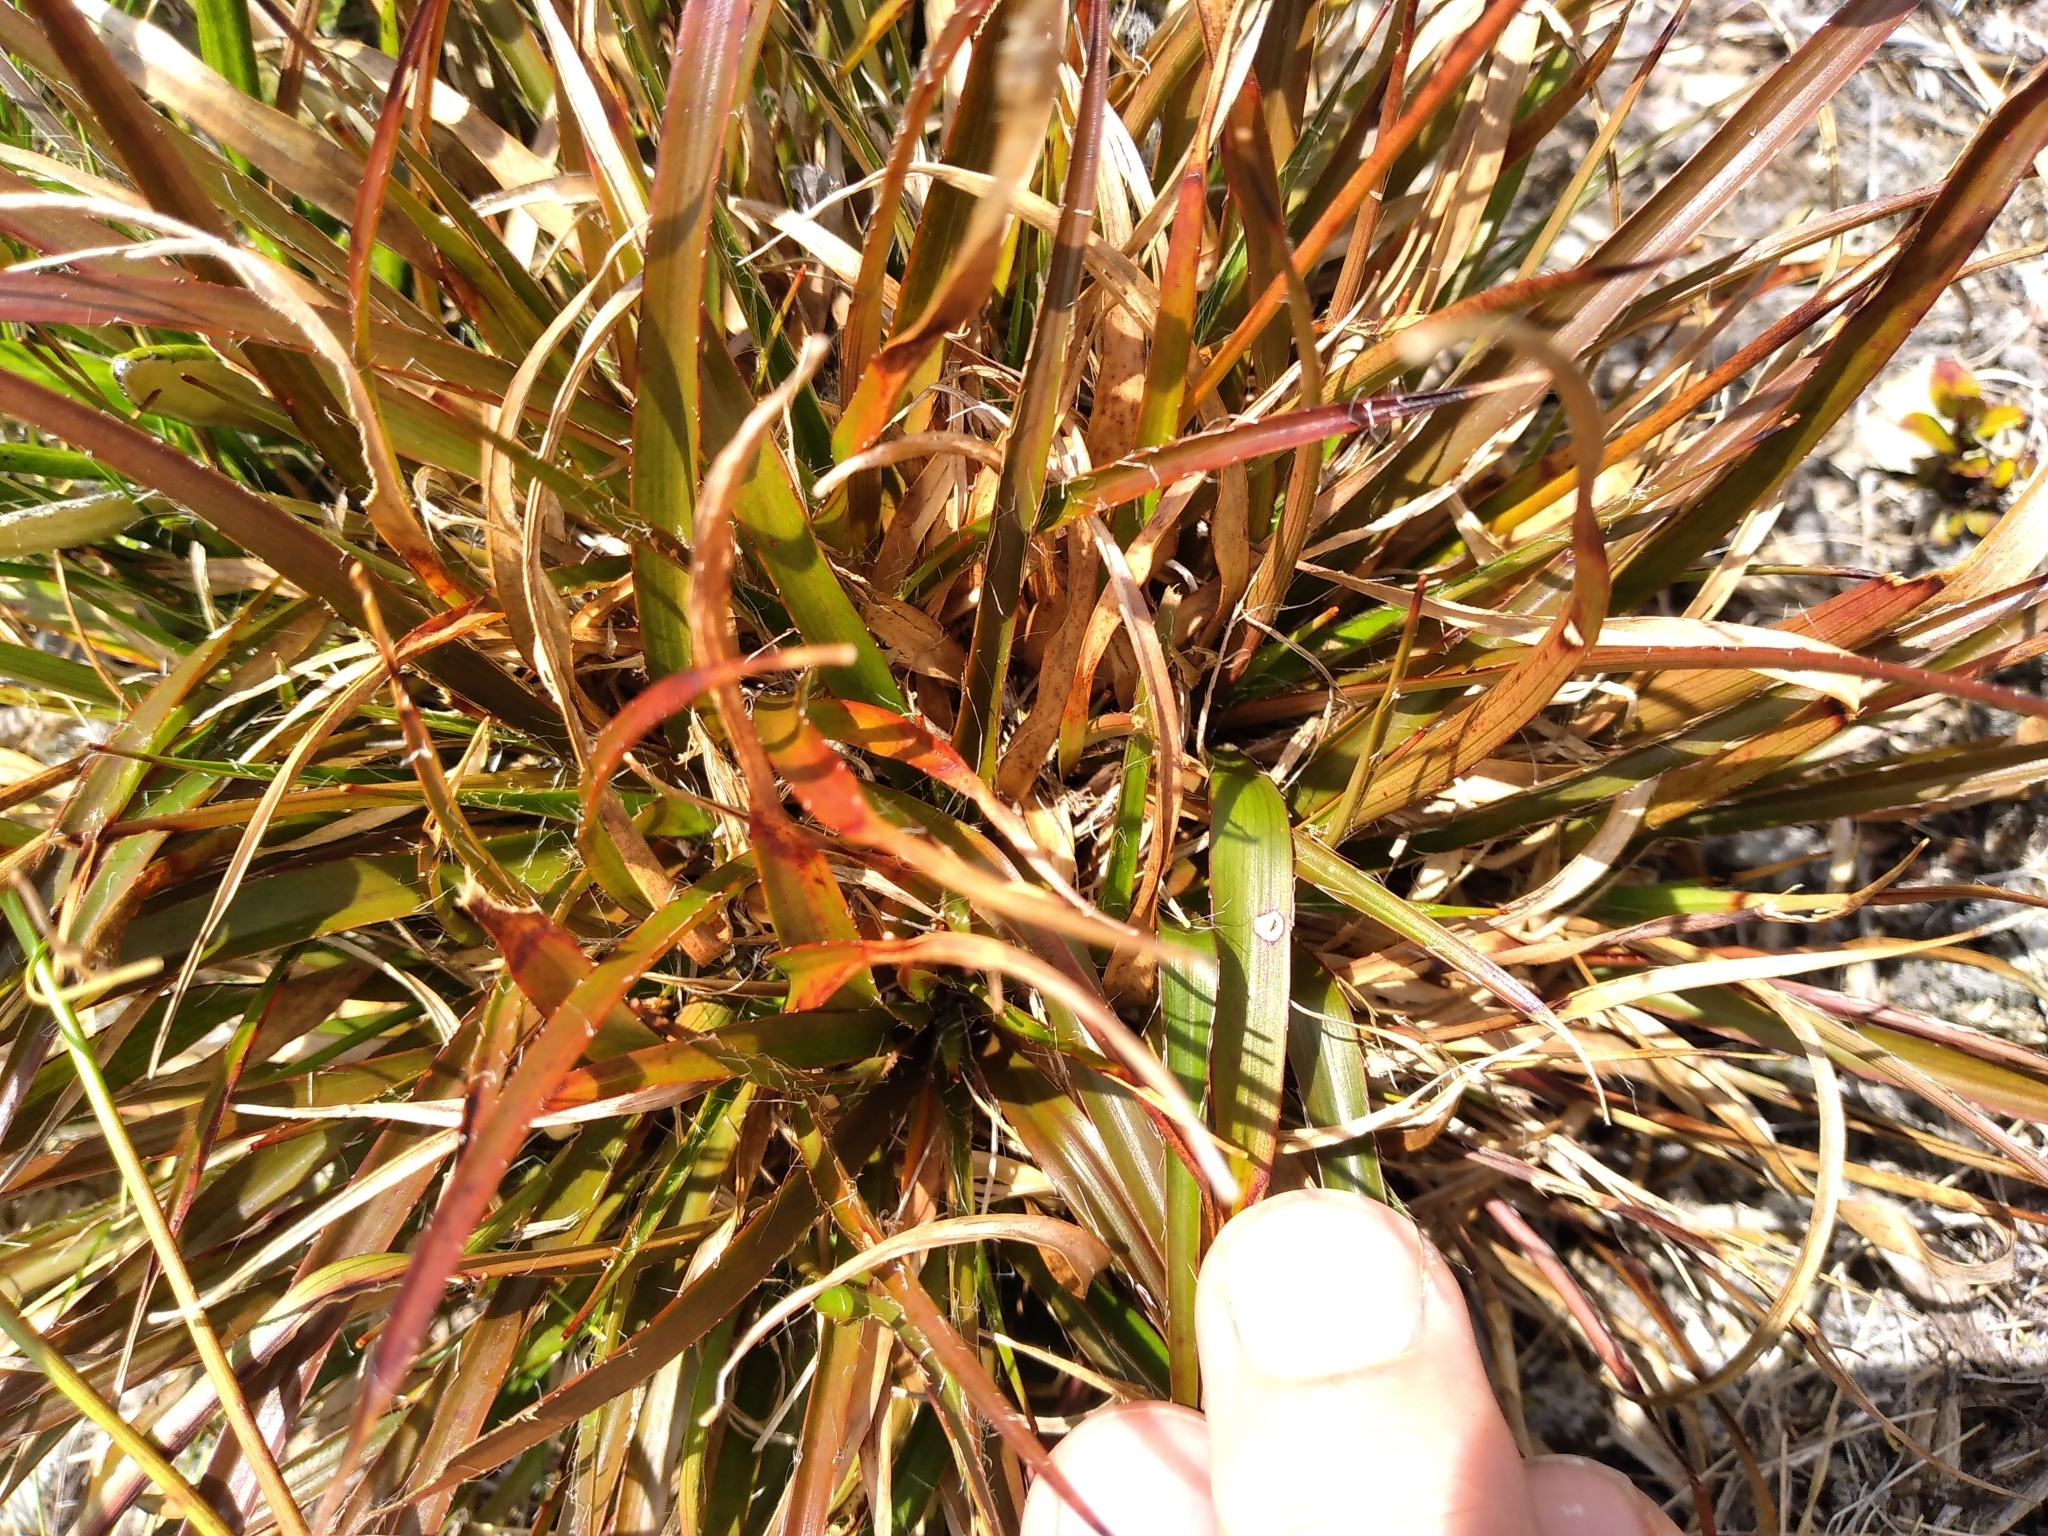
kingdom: Plantae
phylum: Tracheophyta
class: Liliopsida
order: Poales
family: Juncaceae
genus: Luzula
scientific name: Luzula rufa
